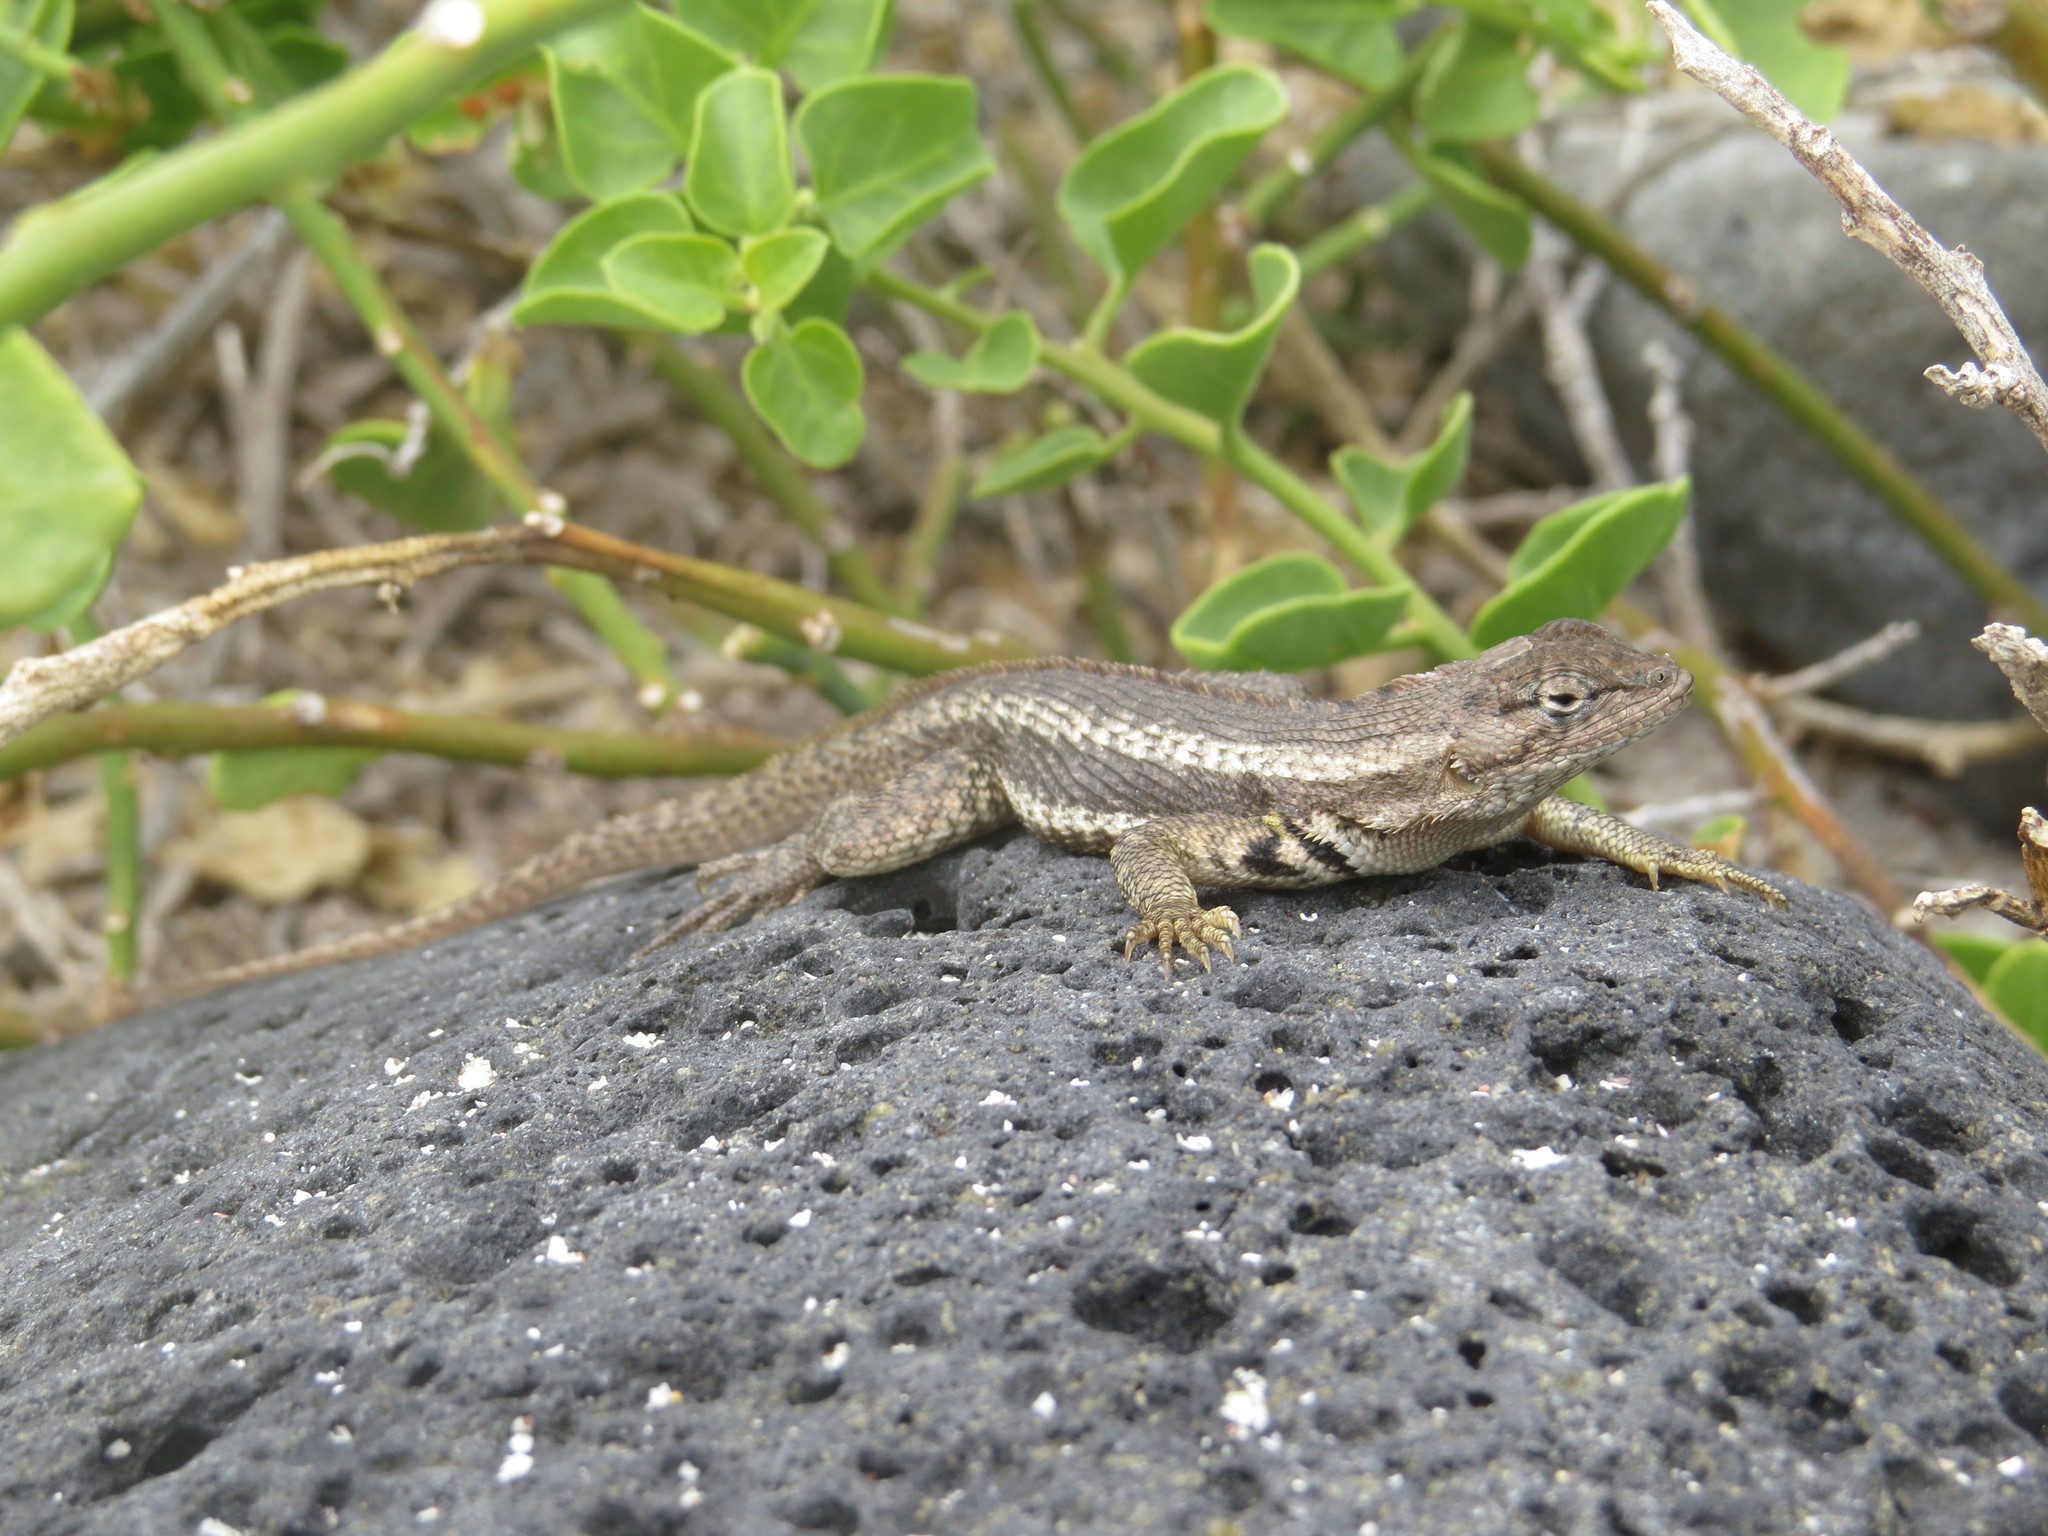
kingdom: Animalia
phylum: Chordata
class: Squamata
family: Tropiduridae
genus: Microlophus
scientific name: Microlophus bivittatus
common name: San cristobal lava lizard
